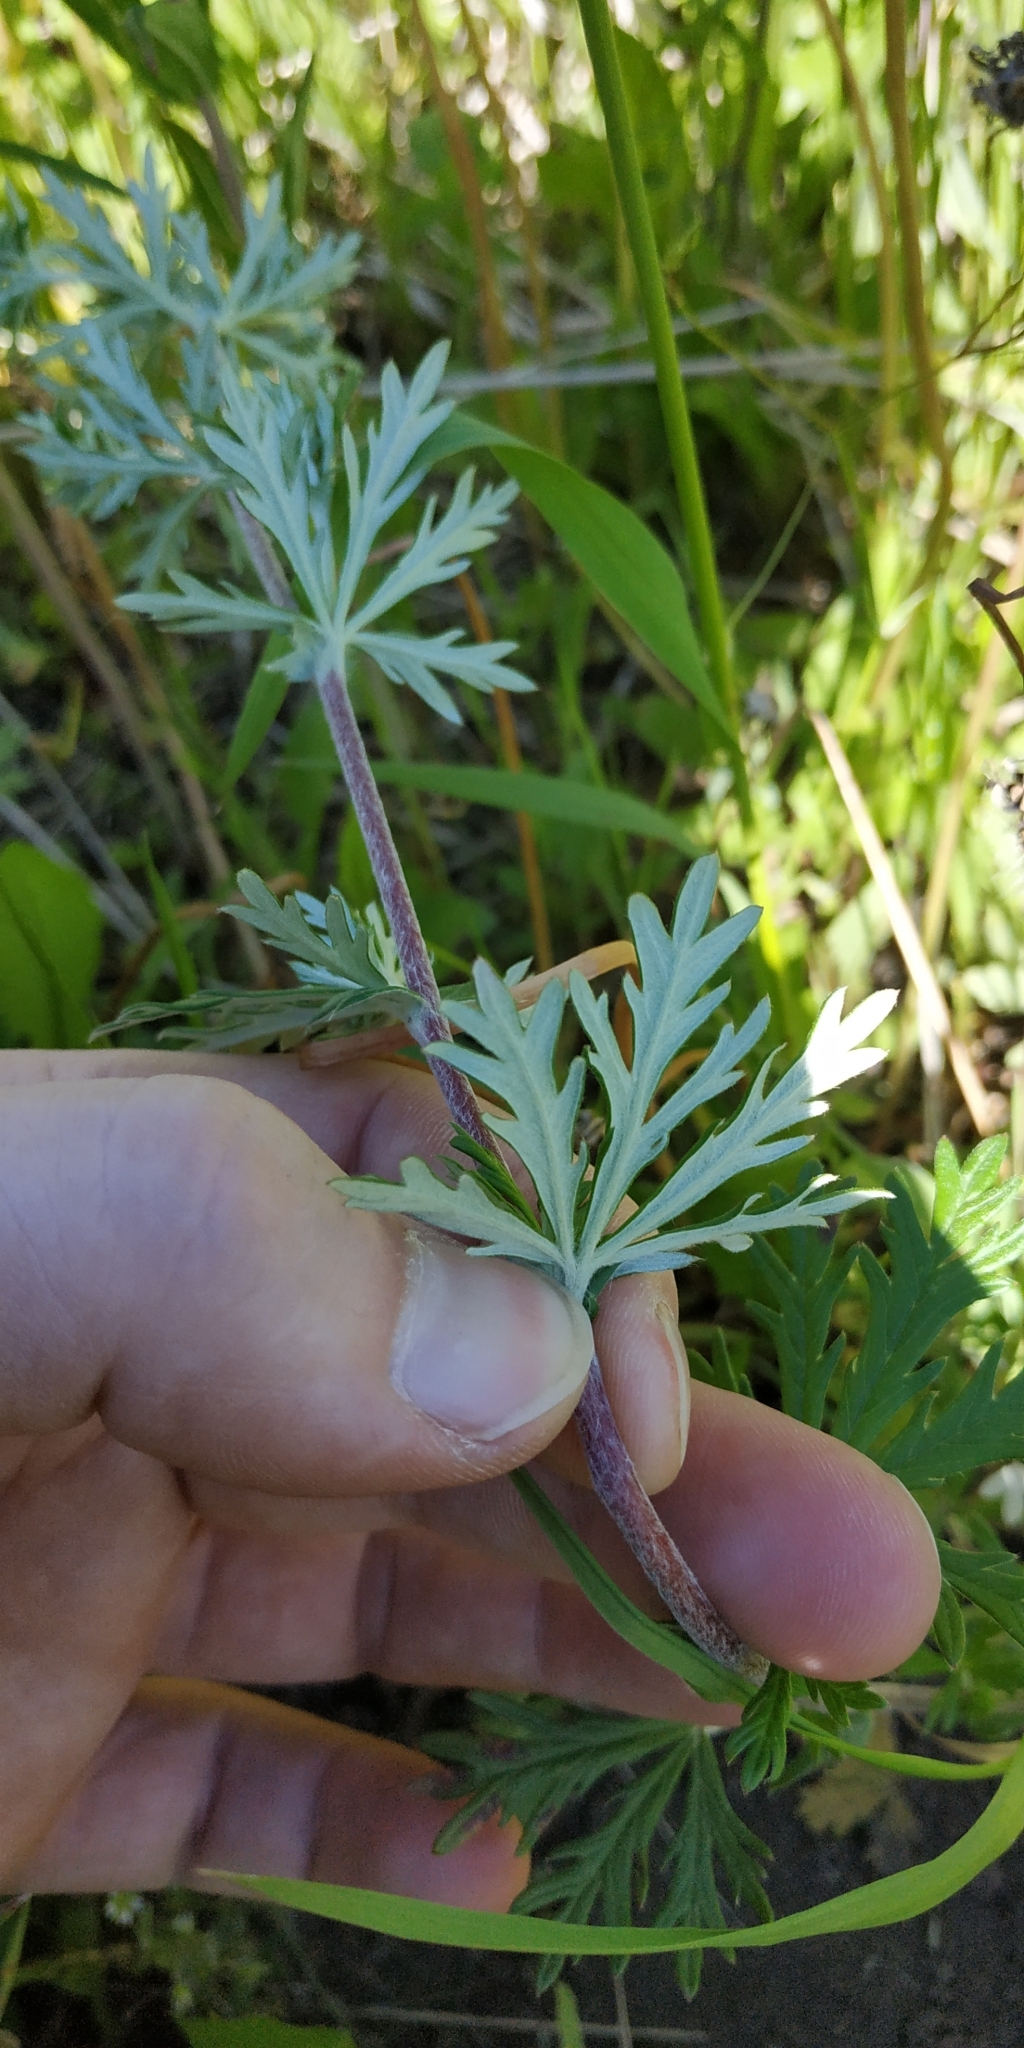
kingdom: Plantae
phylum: Tracheophyta
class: Magnoliopsida
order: Rosales
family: Rosaceae
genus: Potentilla
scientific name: Potentilla argentea
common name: Hoary cinquefoil
